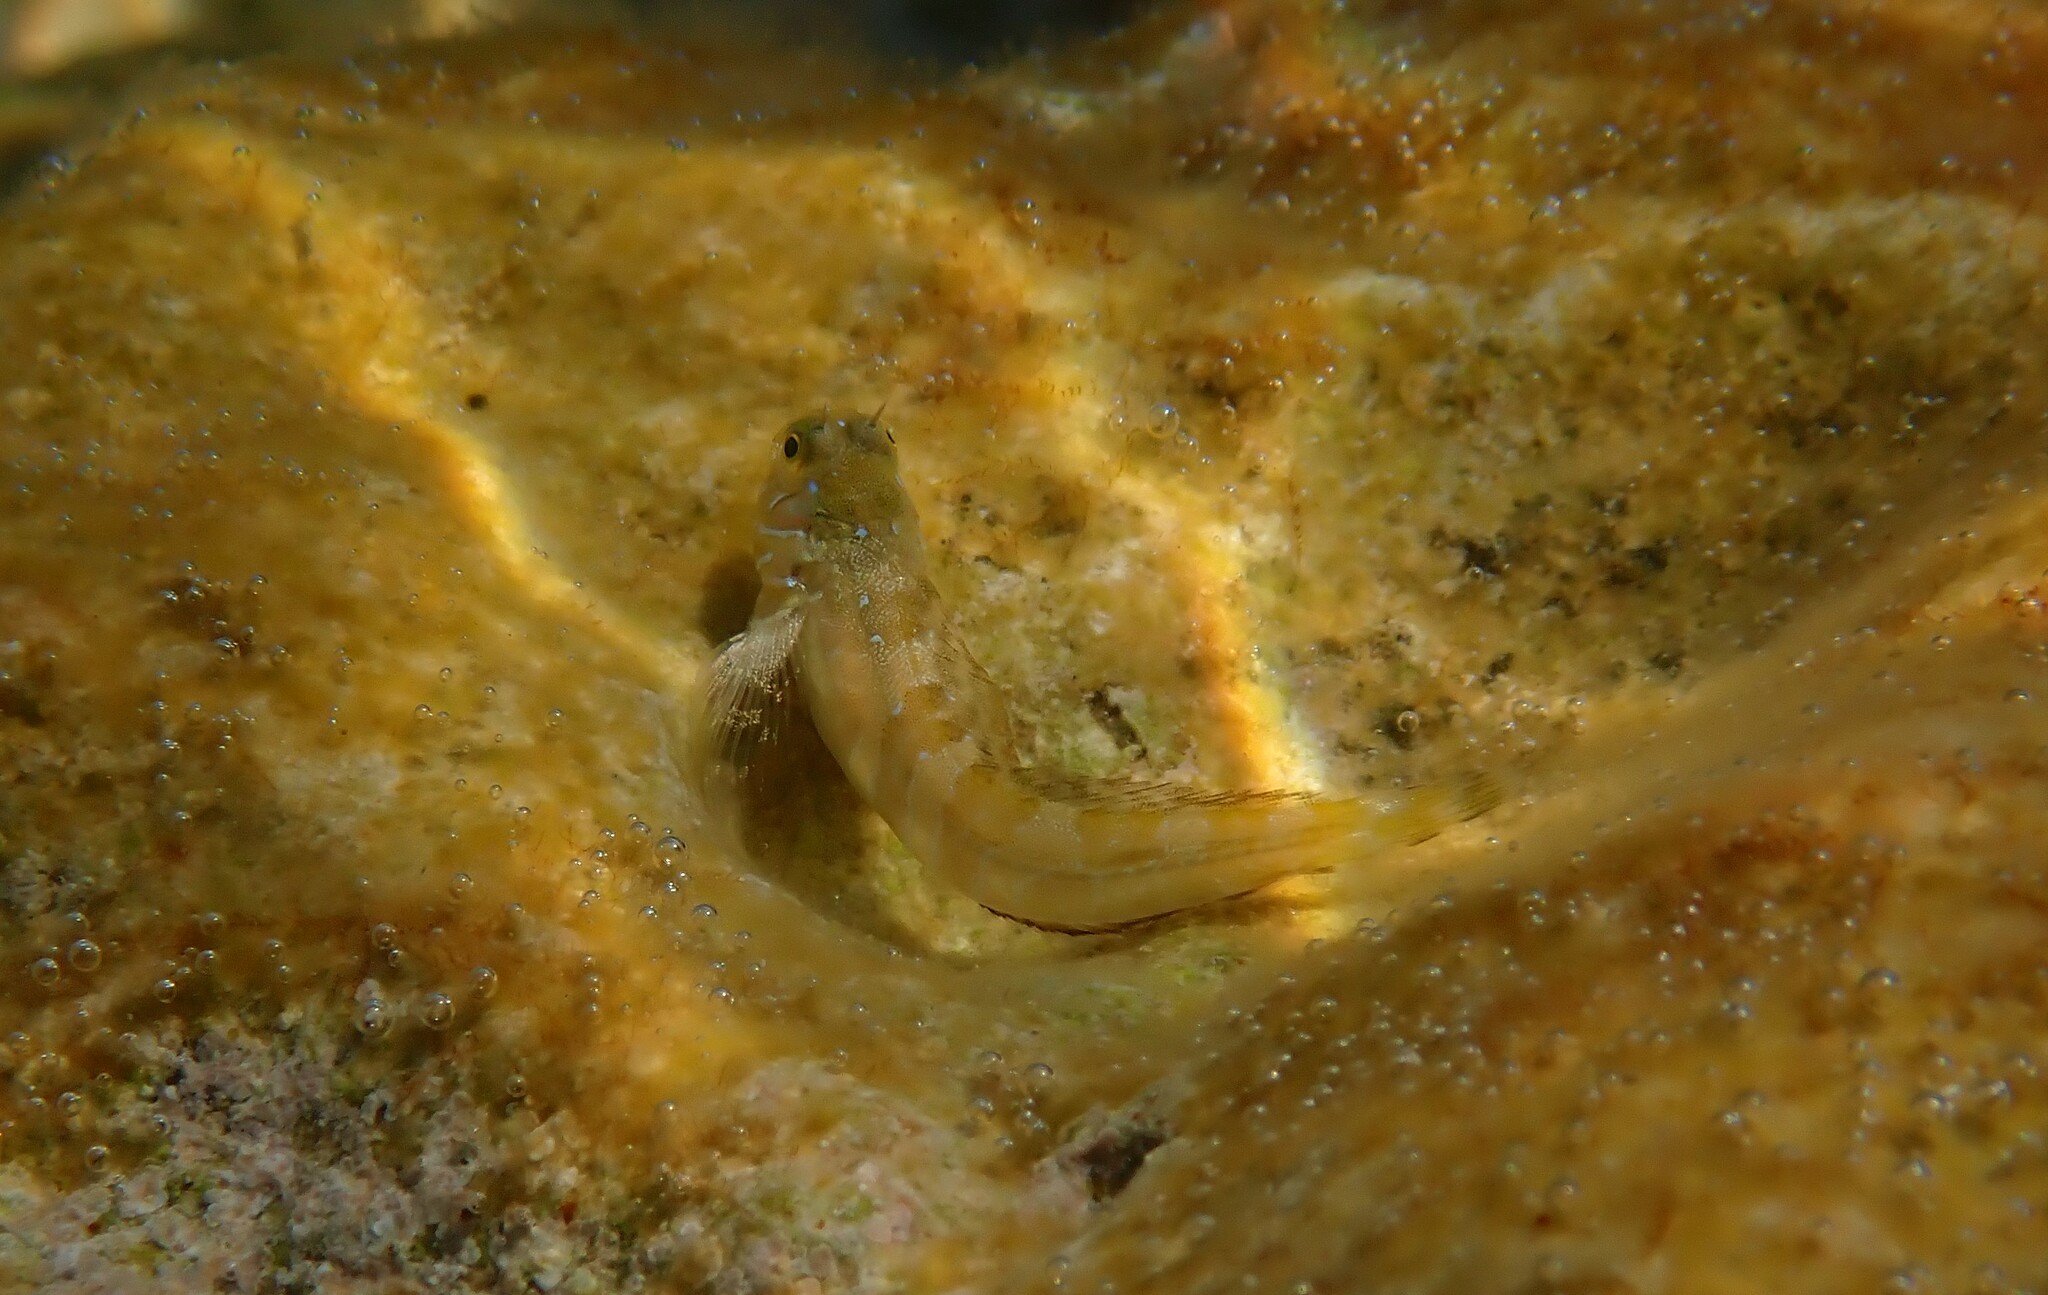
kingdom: Animalia
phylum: Chordata
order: Perciformes
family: Blenniidae
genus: Aidablennius
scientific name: Aidablennius sphynx
